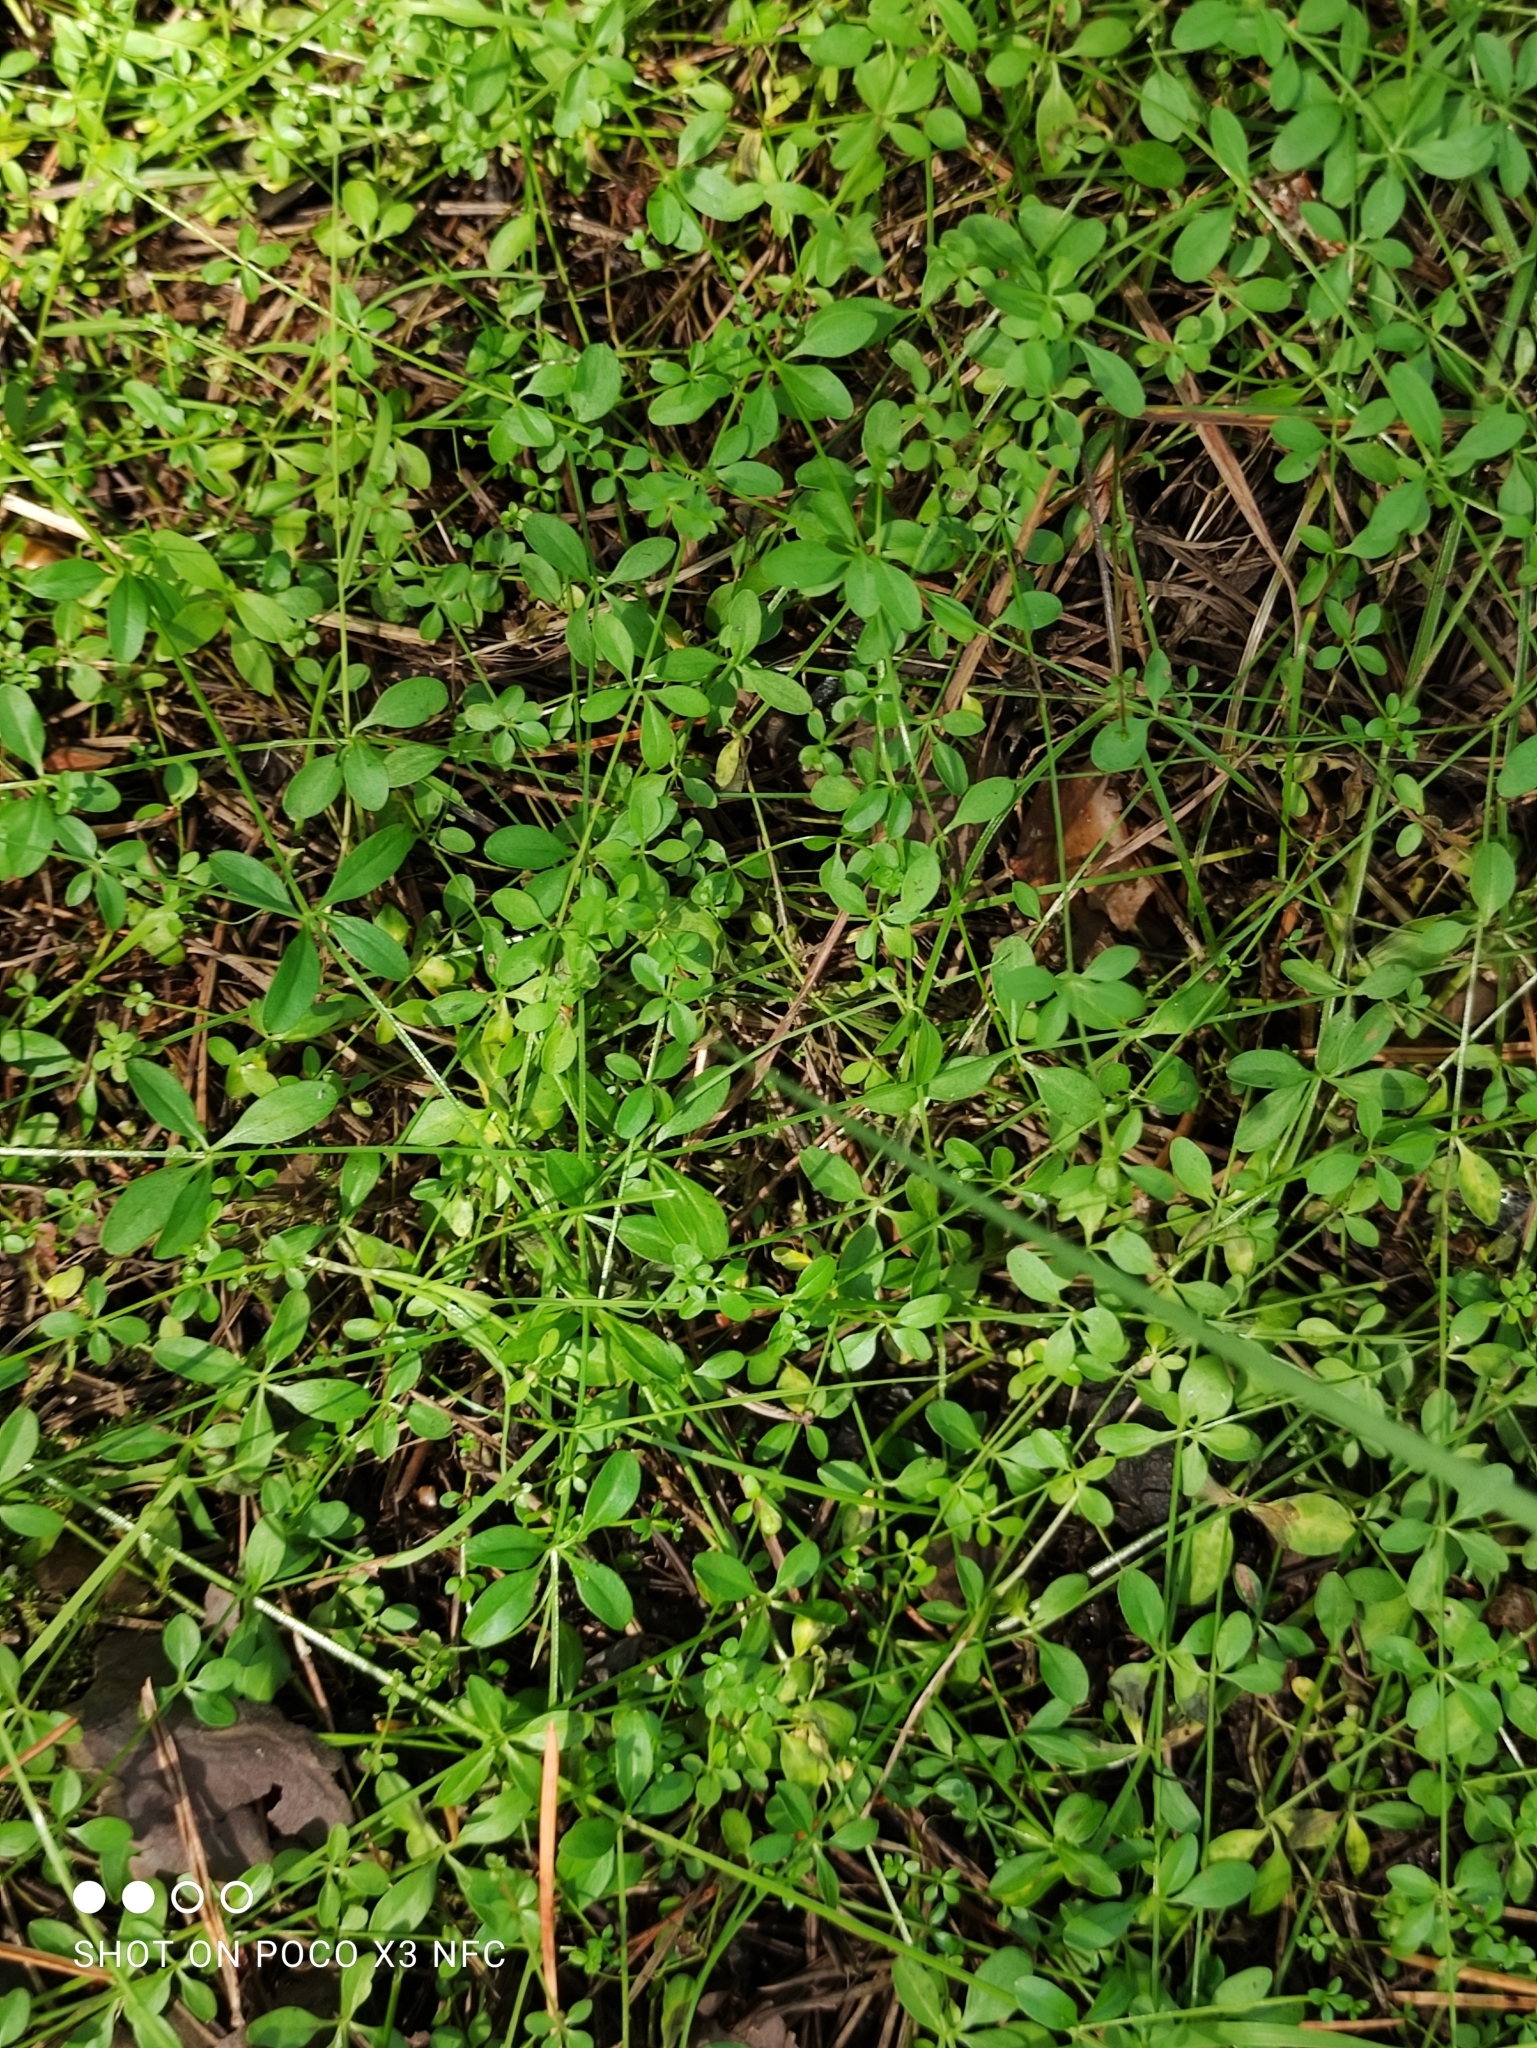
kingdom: Plantae
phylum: Tracheophyta
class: Magnoliopsida
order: Gentianales
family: Rubiaceae
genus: Galium
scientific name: Galium palustre
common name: Common marsh-bedstraw
